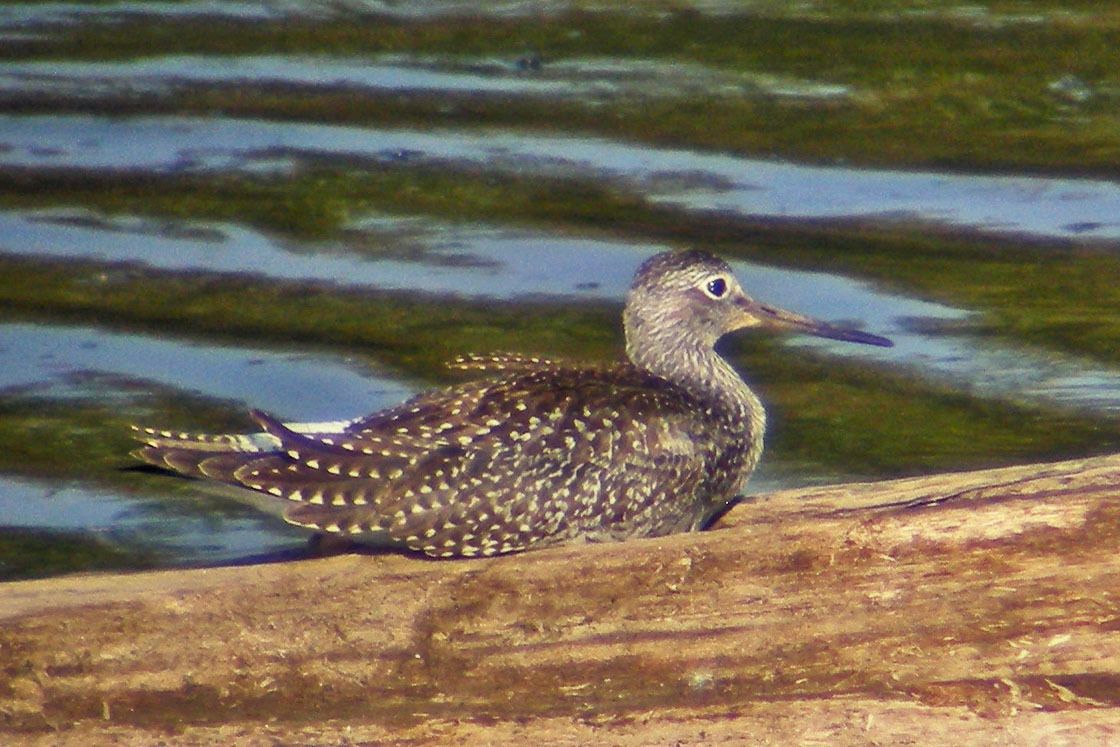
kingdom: Animalia
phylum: Chordata
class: Aves
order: Charadriiformes
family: Scolopacidae
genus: Tringa
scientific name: Tringa melanoleuca
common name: Greater yellowlegs
